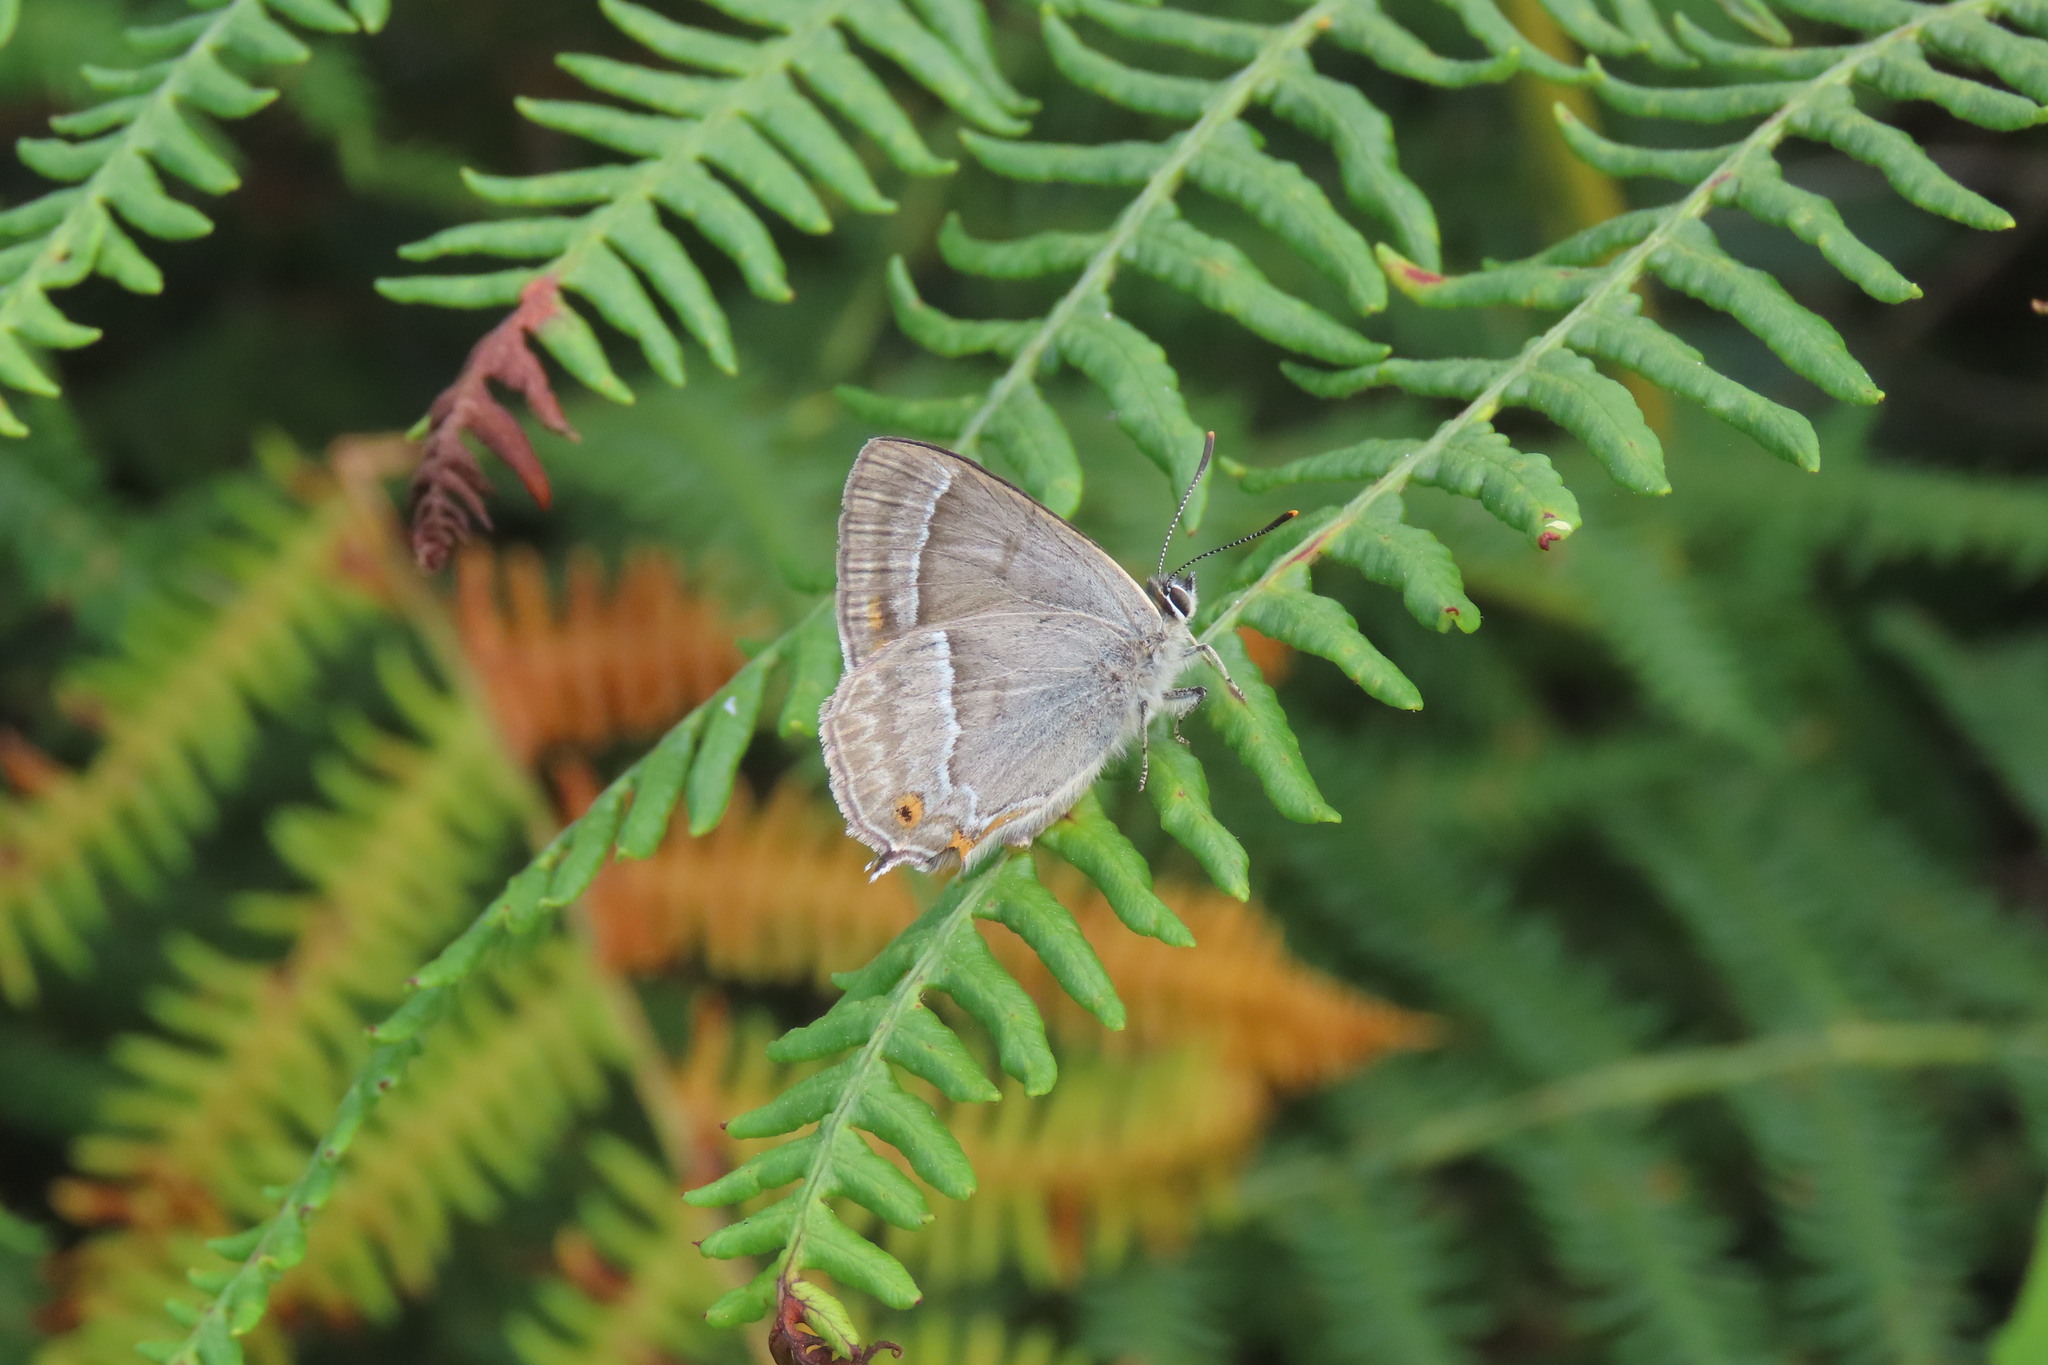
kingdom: Animalia
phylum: Arthropoda
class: Insecta
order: Lepidoptera
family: Lycaenidae
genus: Quercusia
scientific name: Quercusia quercus
